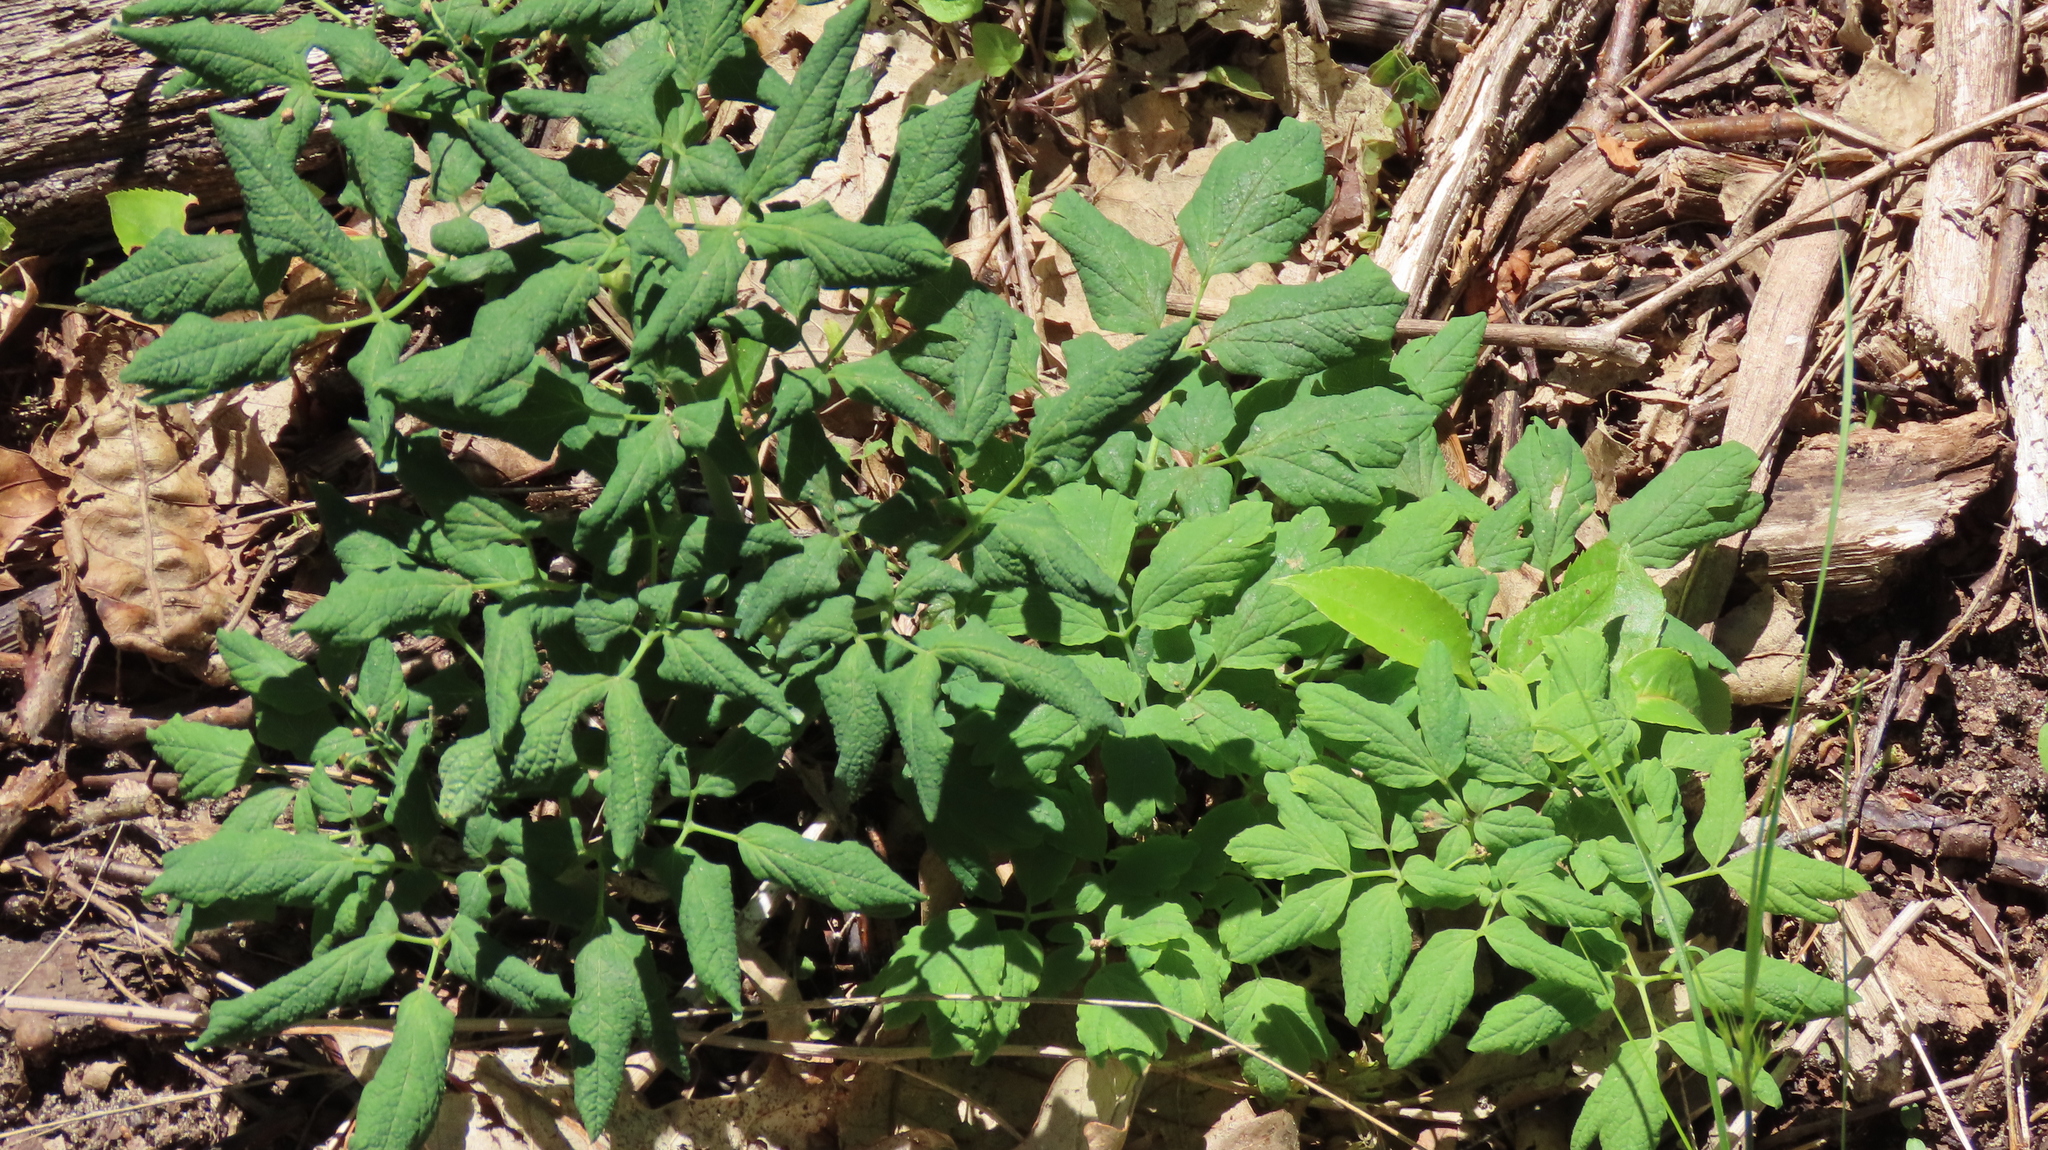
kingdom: Plantae
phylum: Tracheophyta
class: Magnoliopsida
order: Ranunculales
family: Berberidaceae
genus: Caulophyllum
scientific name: Caulophyllum thalictroides
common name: Blue cohosh
